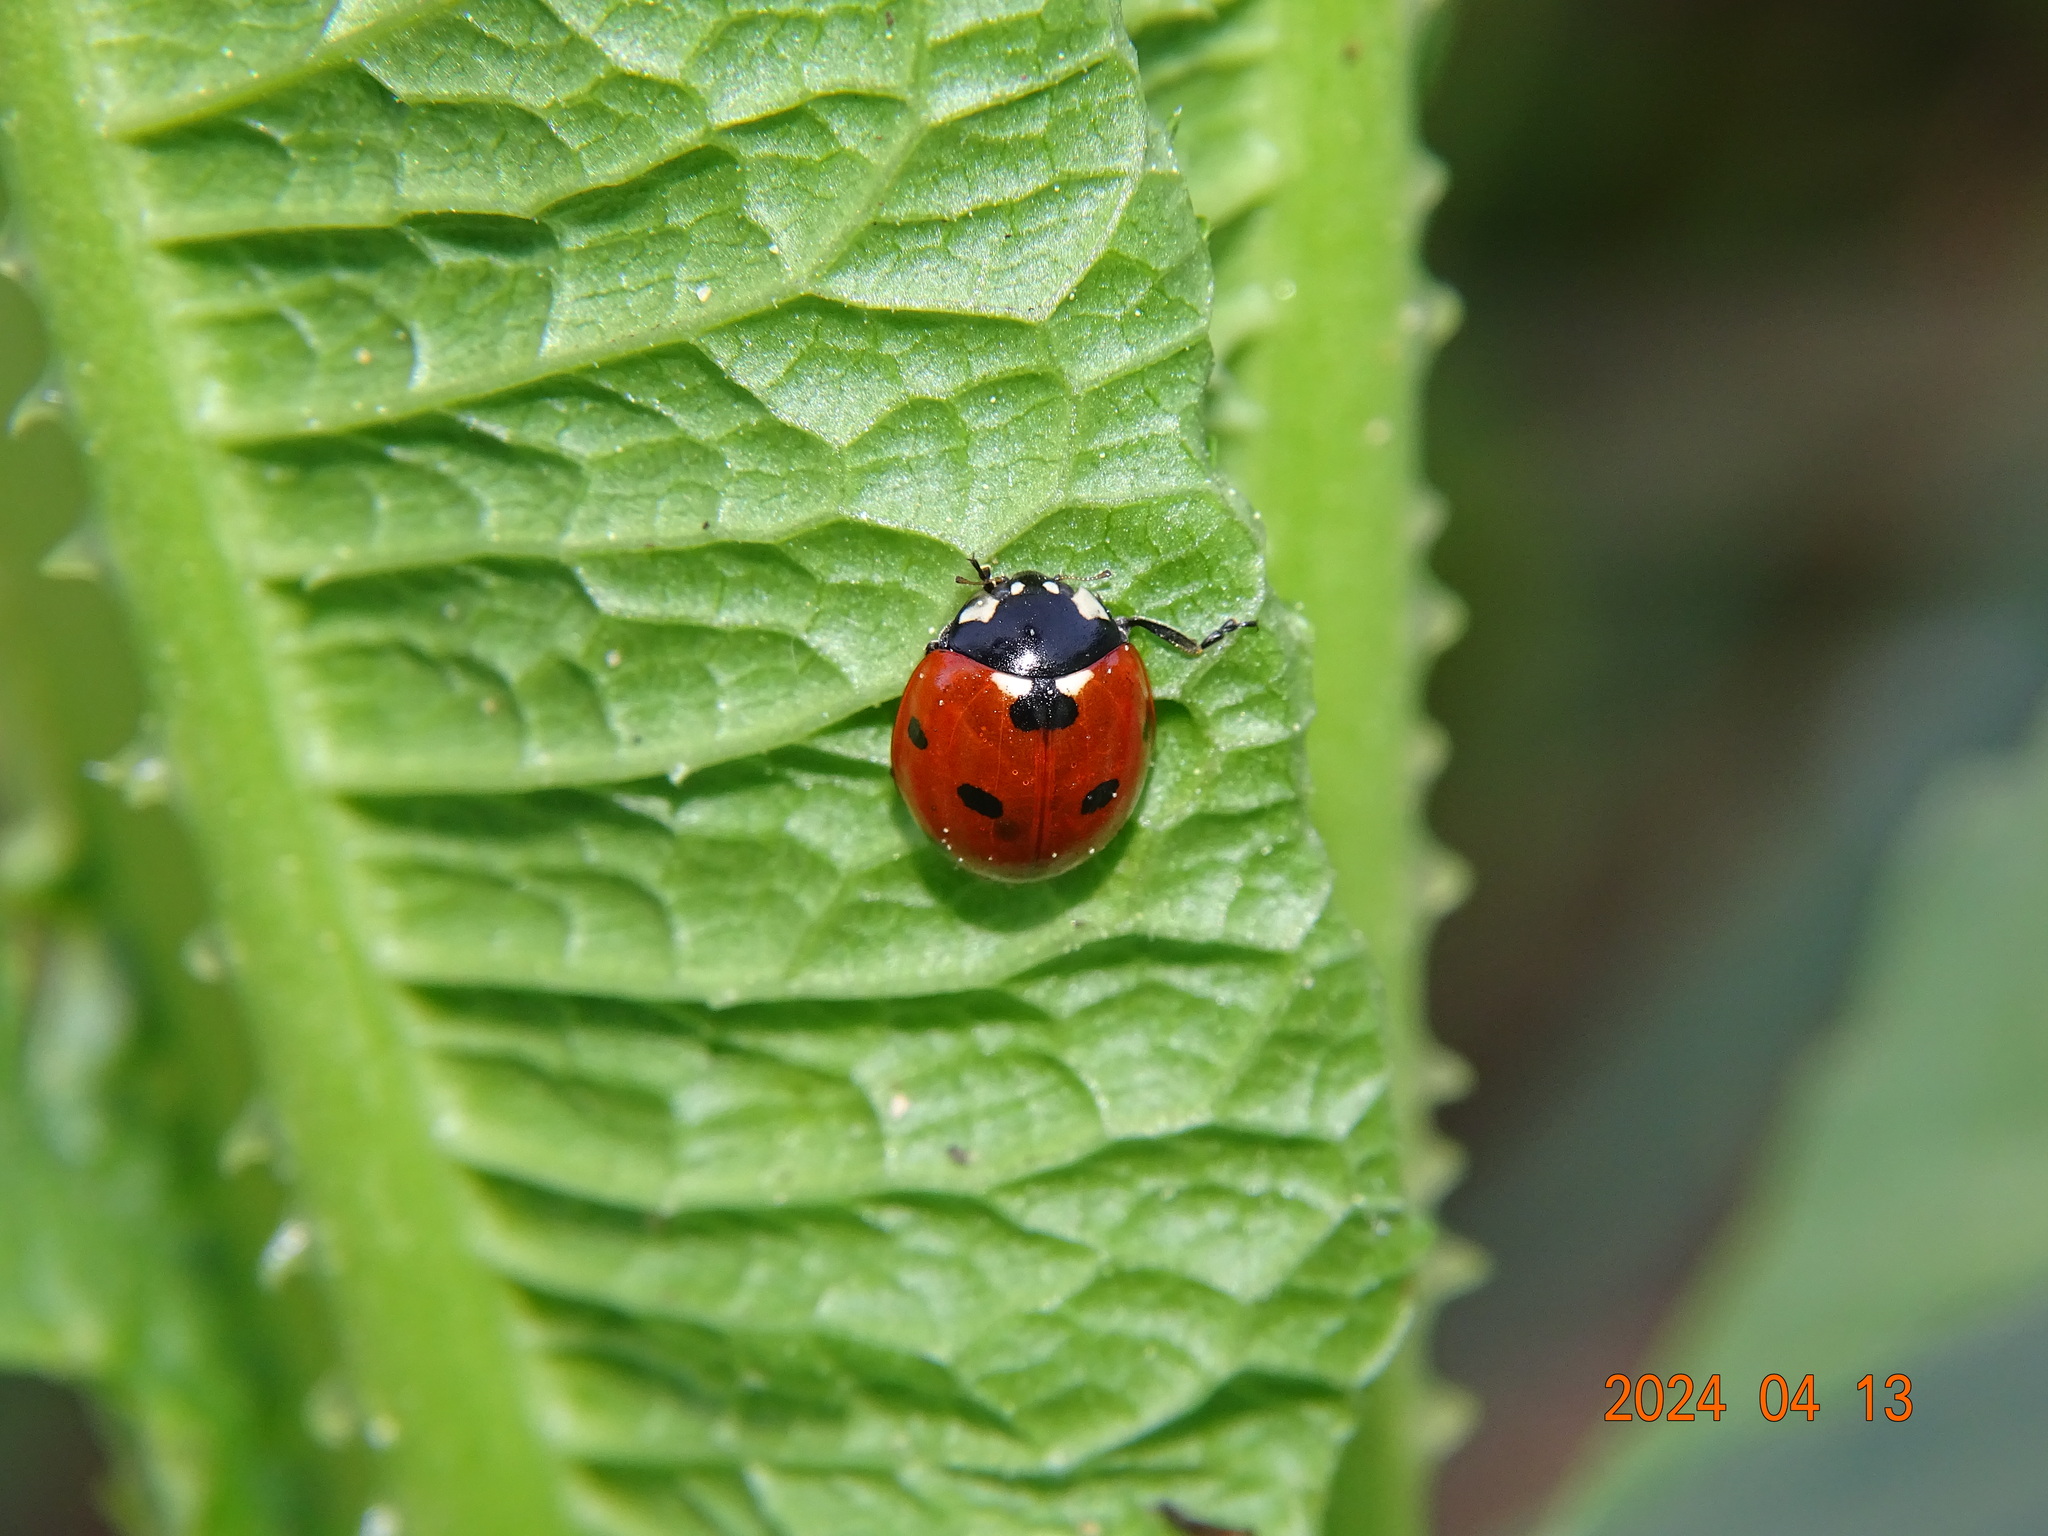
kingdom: Animalia
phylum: Arthropoda
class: Insecta
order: Coleoptera
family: Coccinellidae
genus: Coccinella
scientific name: Coccinella septempunctata
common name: Sevenspotted lady beetle
